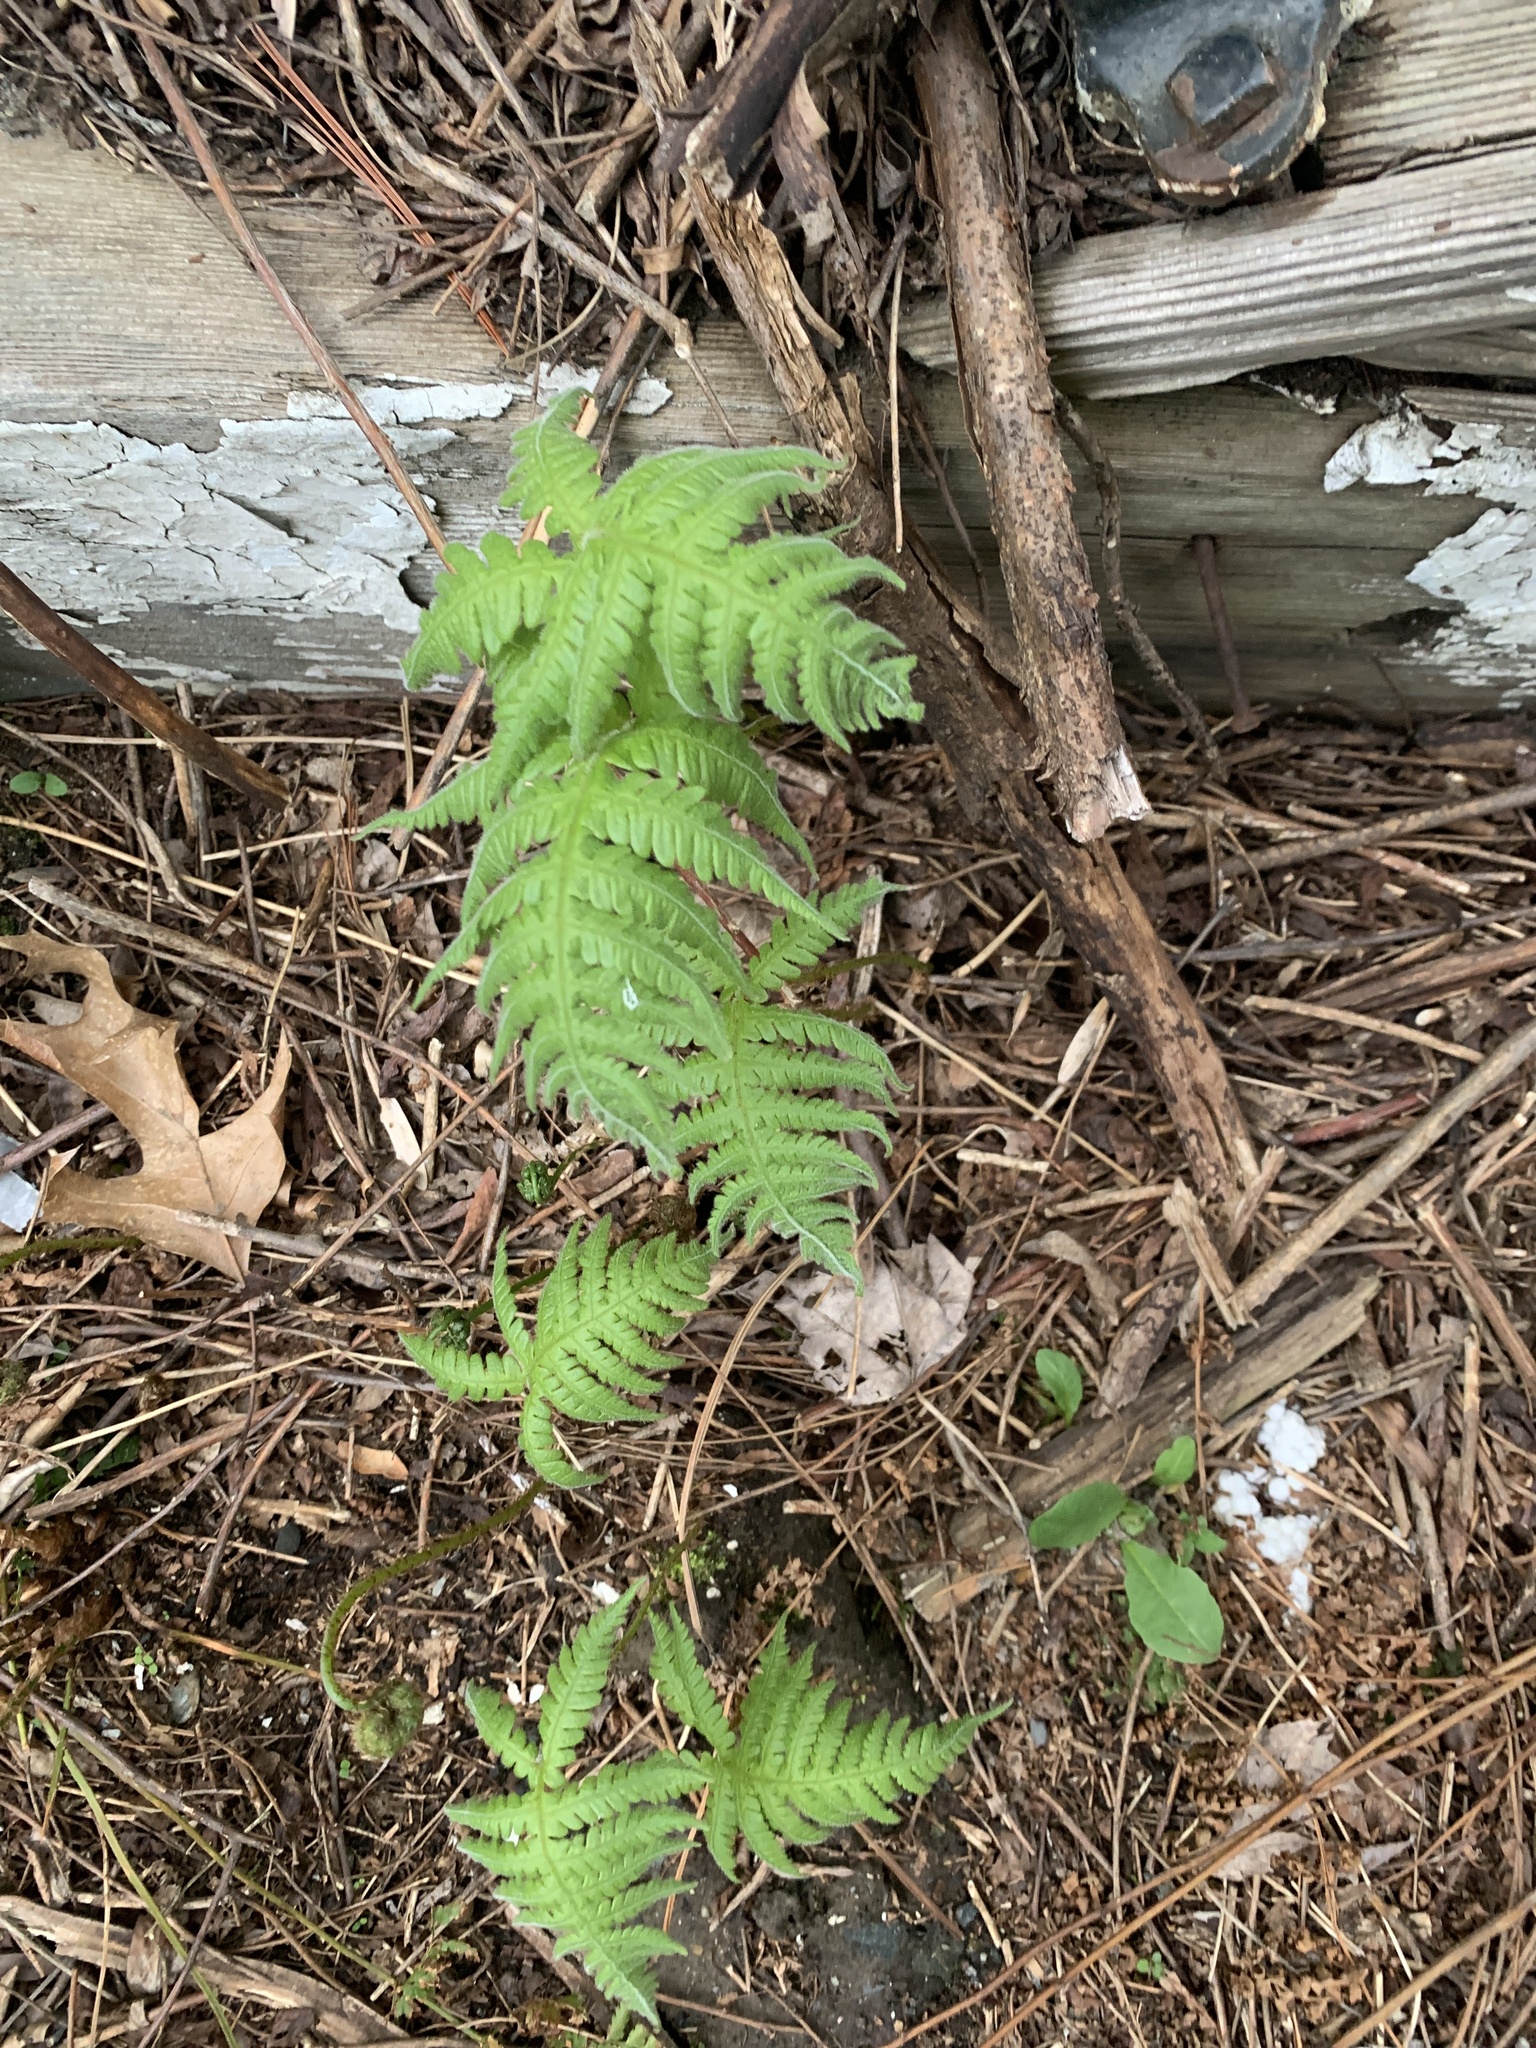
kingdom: Plantae
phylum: Tracheophyta
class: Polypodiopsida
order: Polypodiales
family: Thelypteridaceae
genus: Phegopteris
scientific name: Phegopteris connectilis
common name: Beech fern
